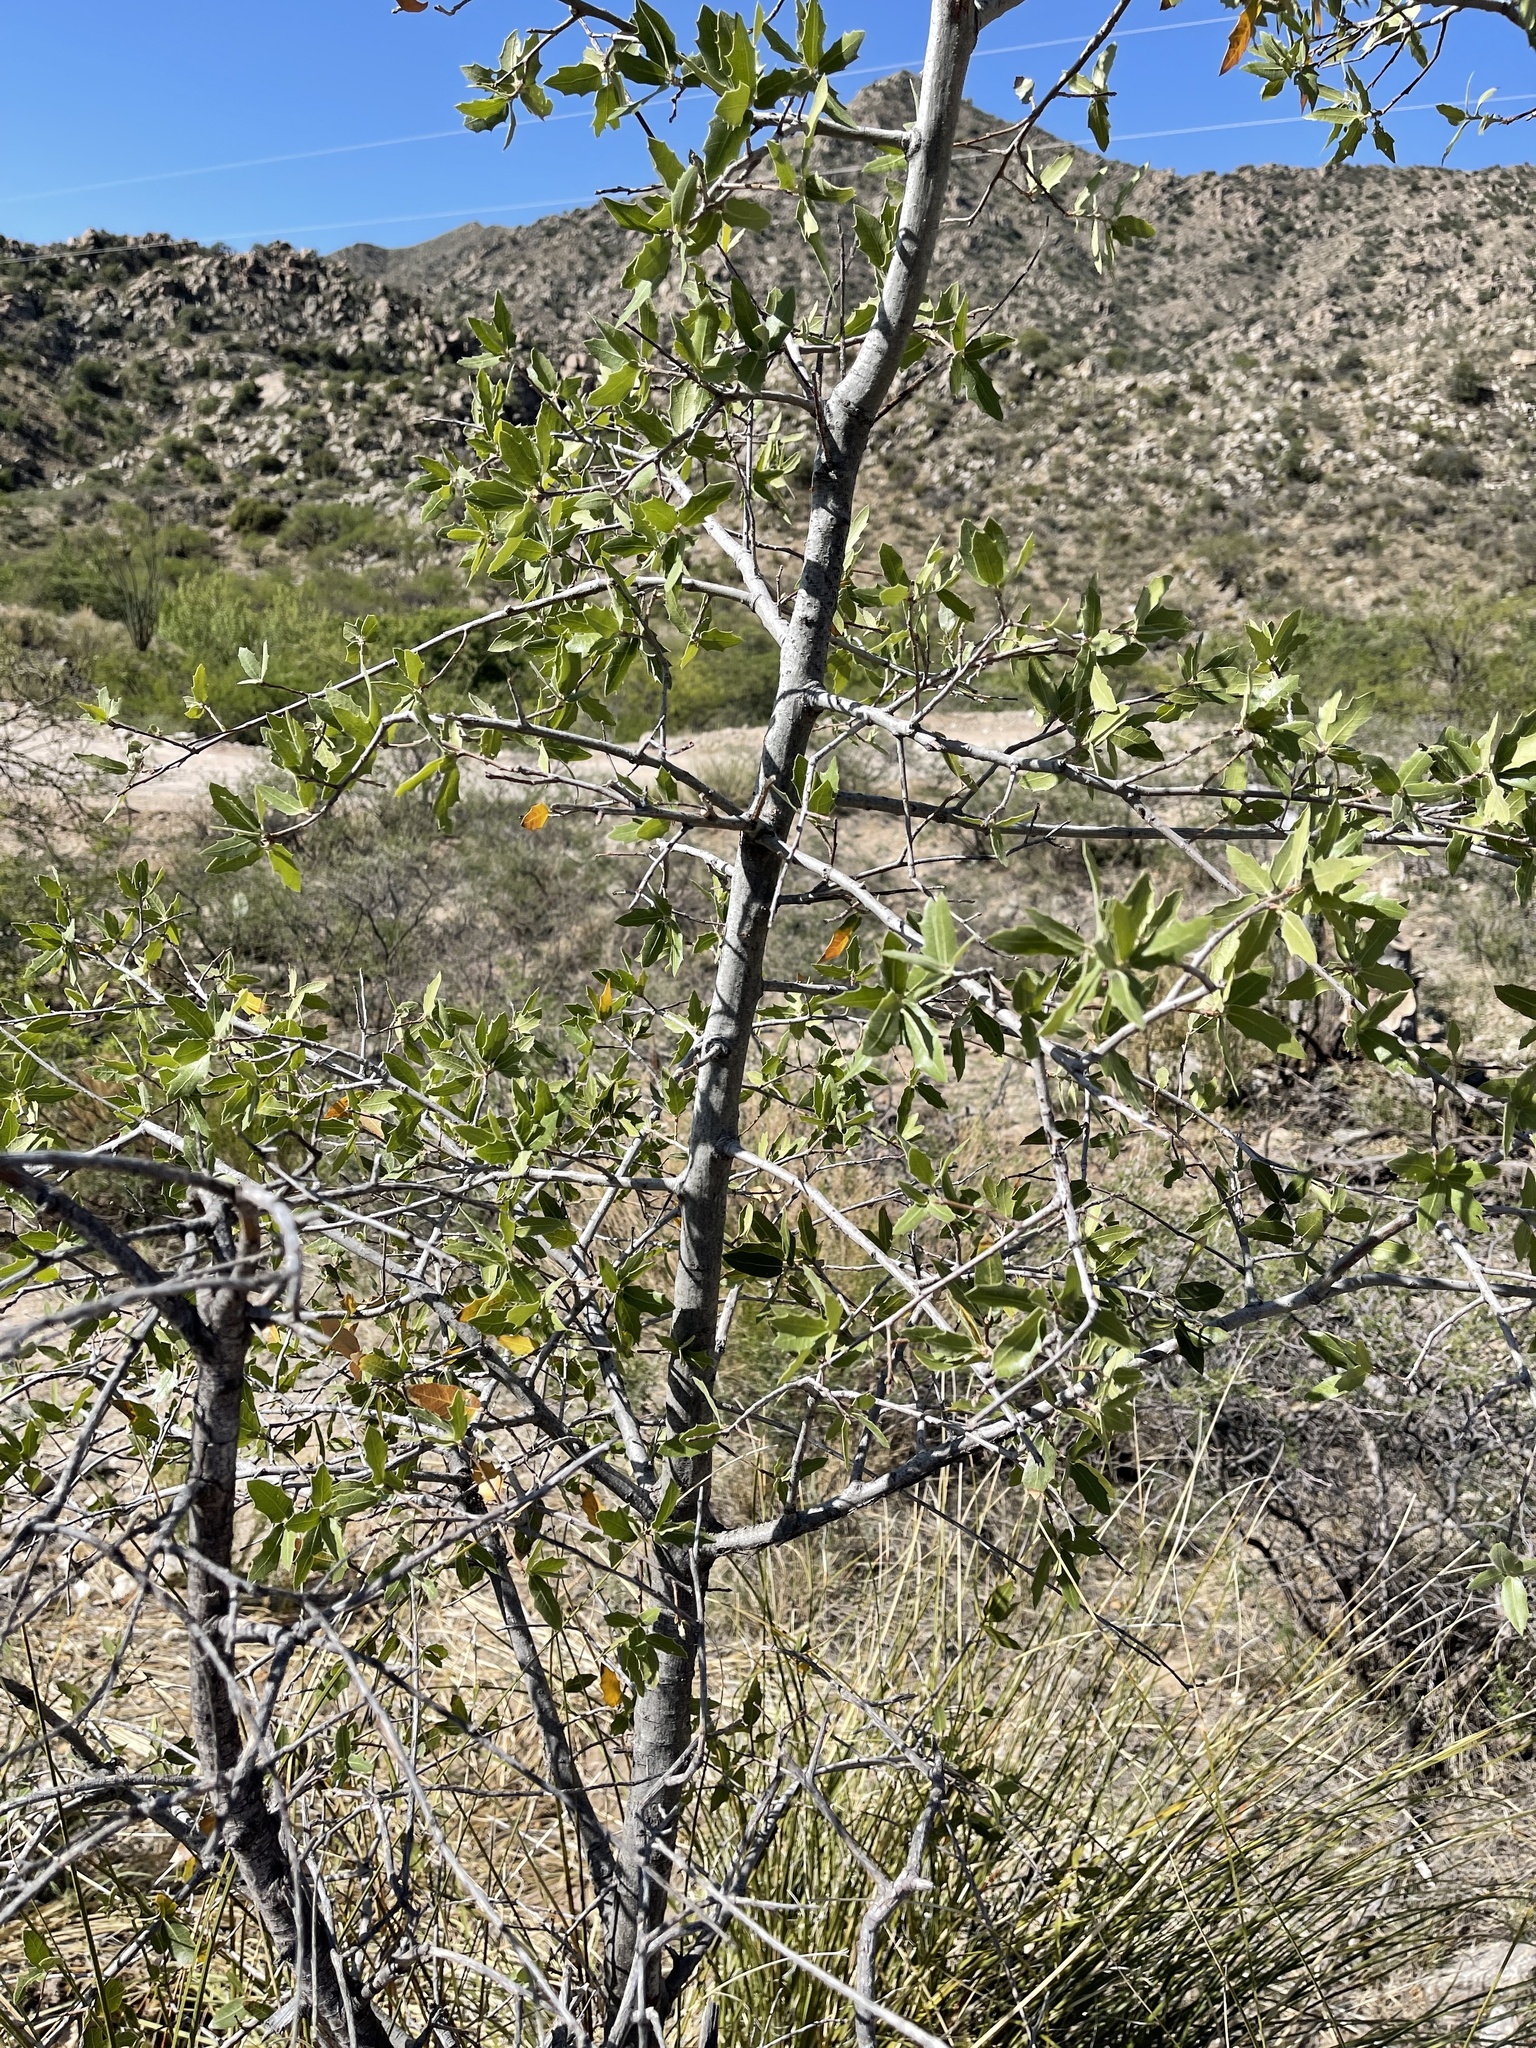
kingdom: Plantae
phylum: Tracheophyta
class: Magnoliopsida
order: Fagales
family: Fagaceae
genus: Quercus
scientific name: Quercus emoryi
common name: Emory oak
